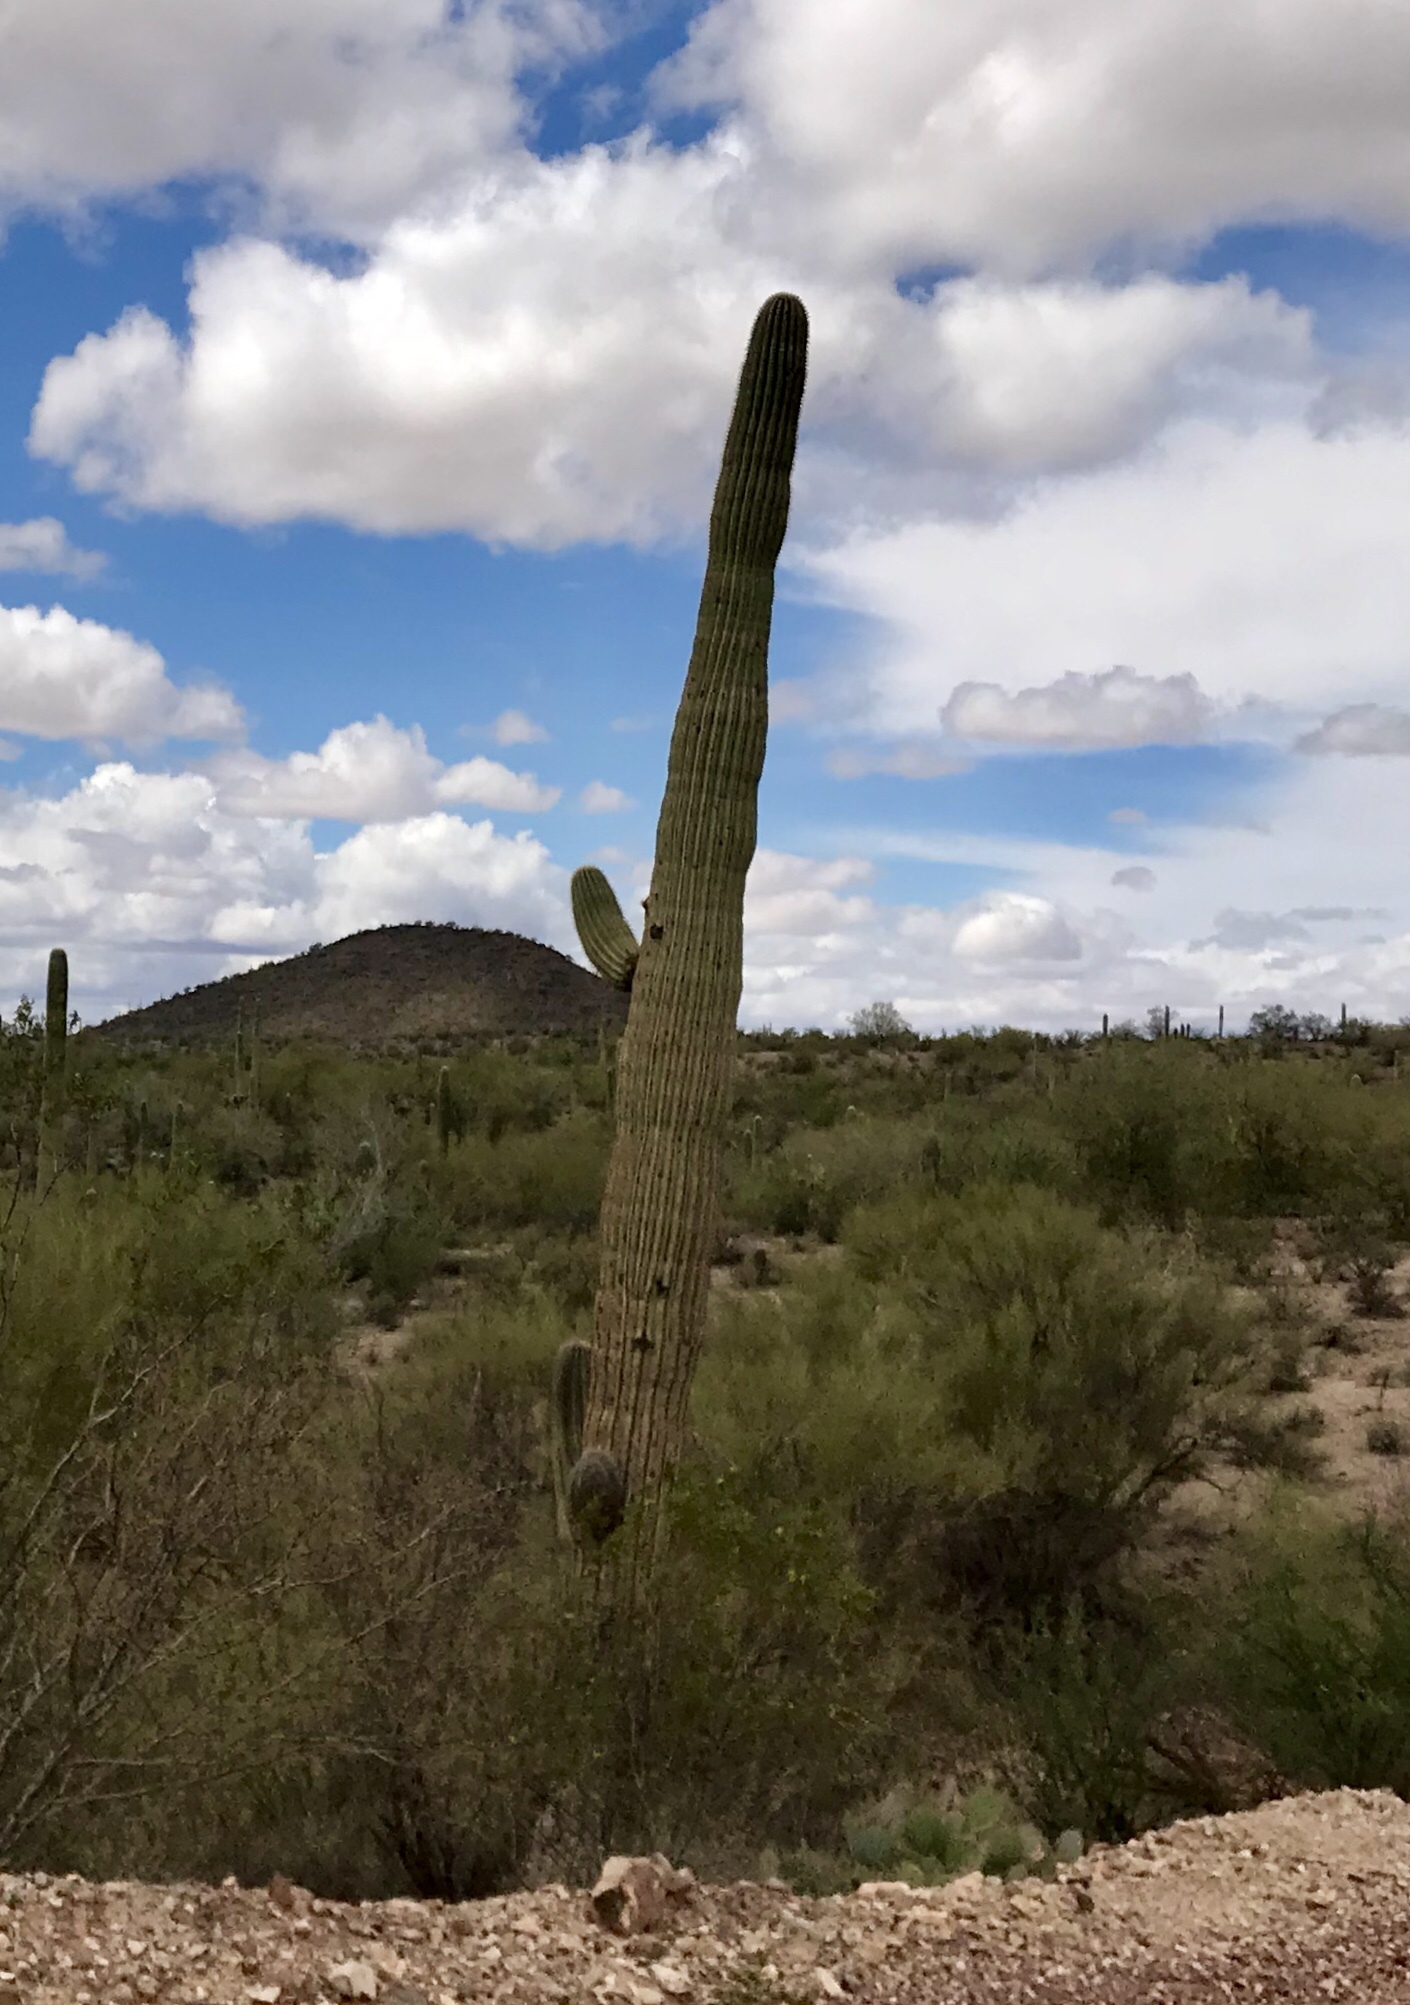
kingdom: Plantae
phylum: Tracheophyta
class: Magnoliopsida
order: Caryophyllales
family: Cactaceae
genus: Carnegiea
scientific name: Carnegiea gigantea
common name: Saguaro
